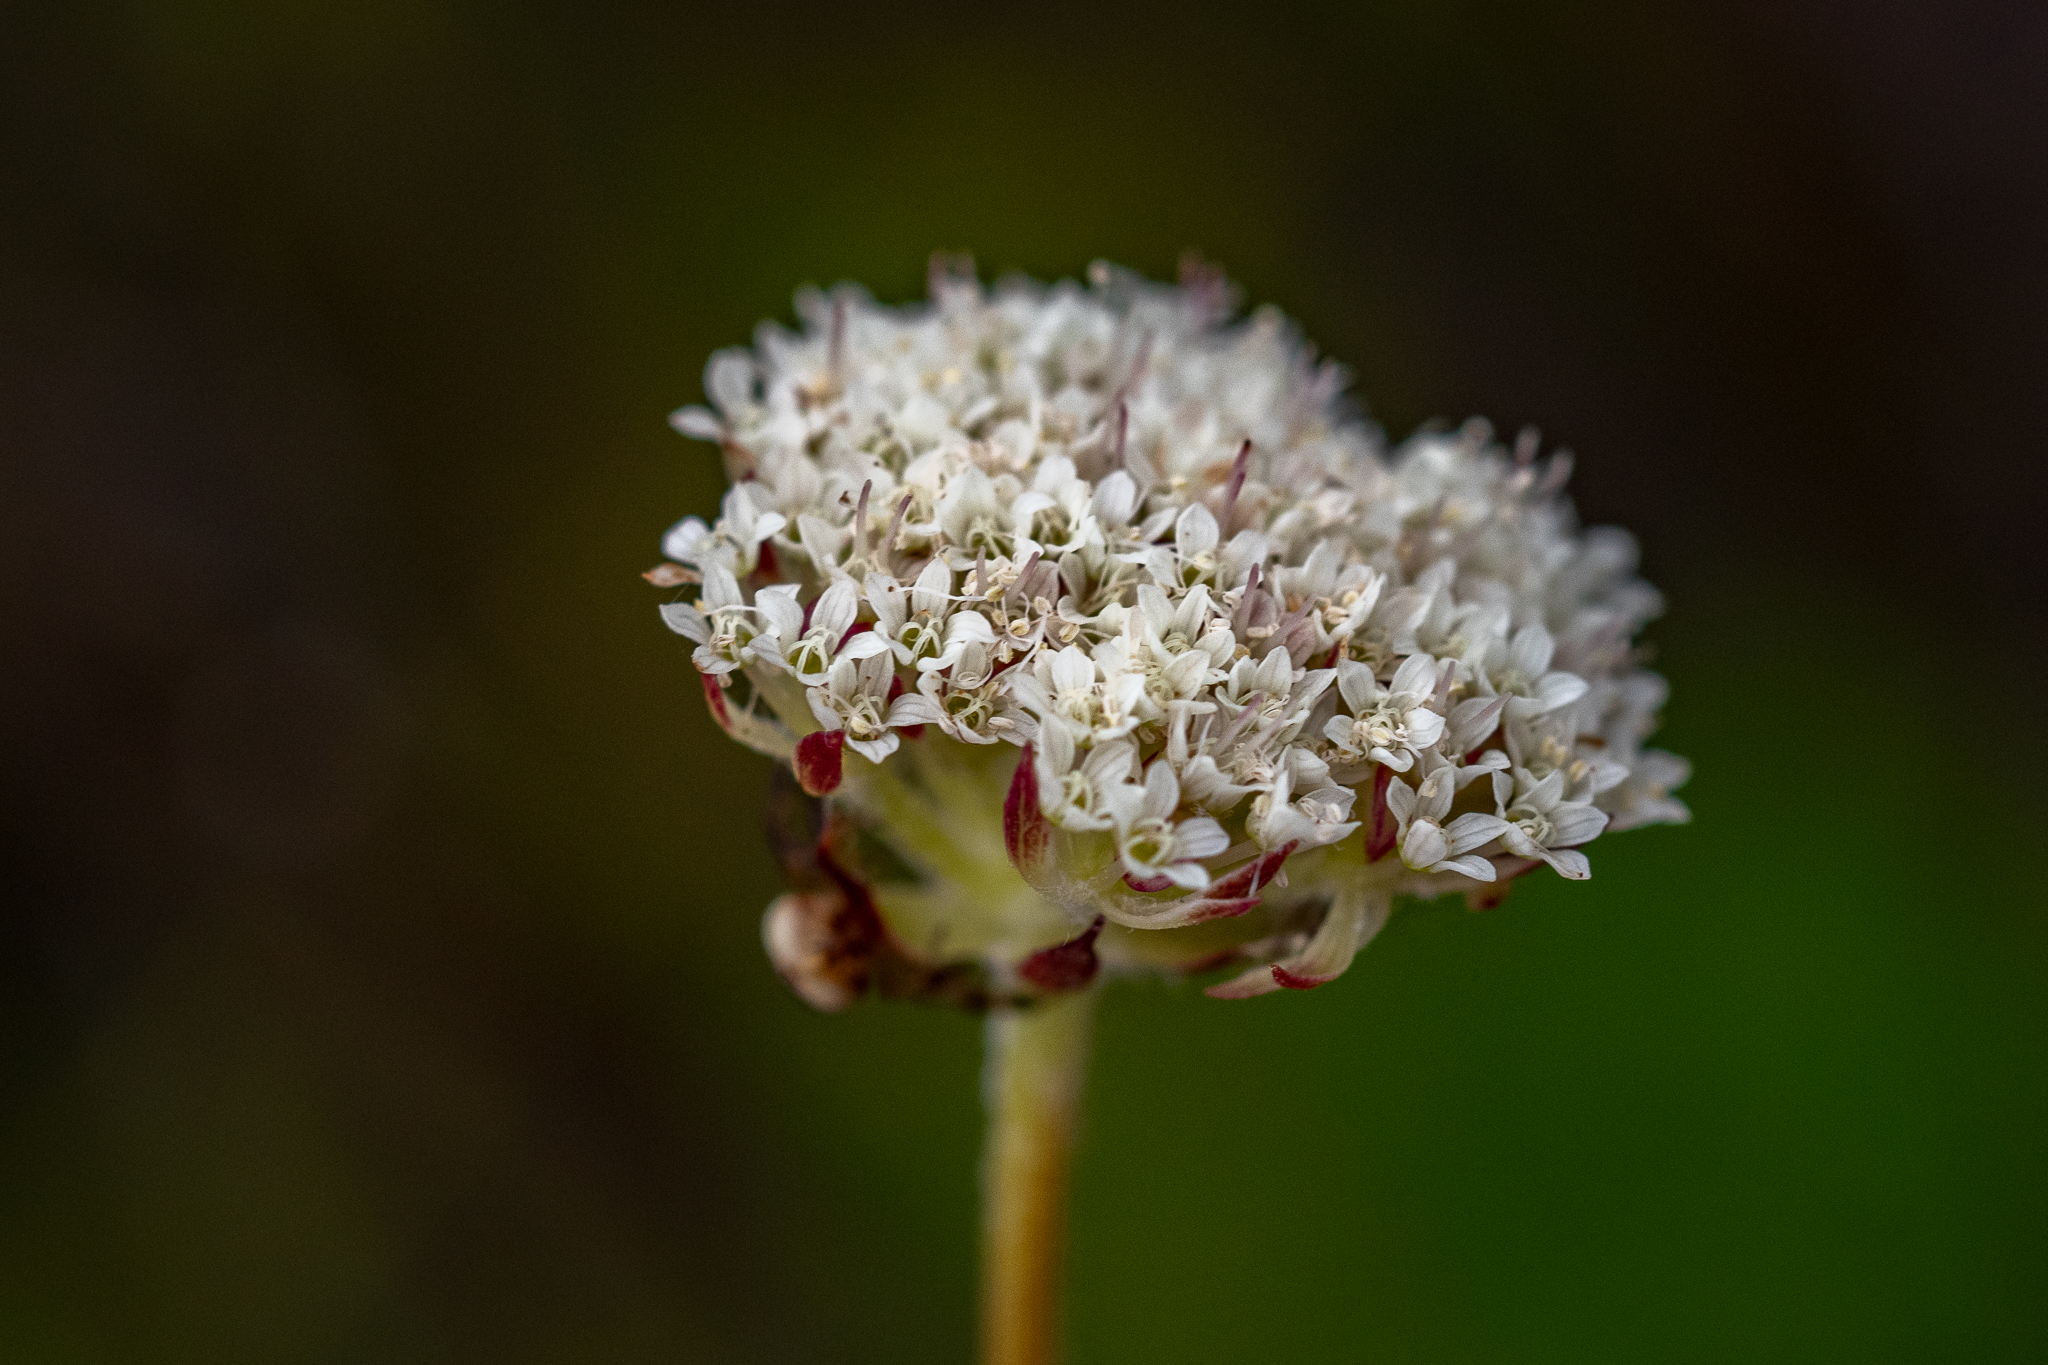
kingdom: Plantae
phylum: Tracheophyta
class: Magnoliopsida
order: Apiales
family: Apiaceae
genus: Hermas
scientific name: Hermas quinquedentata
